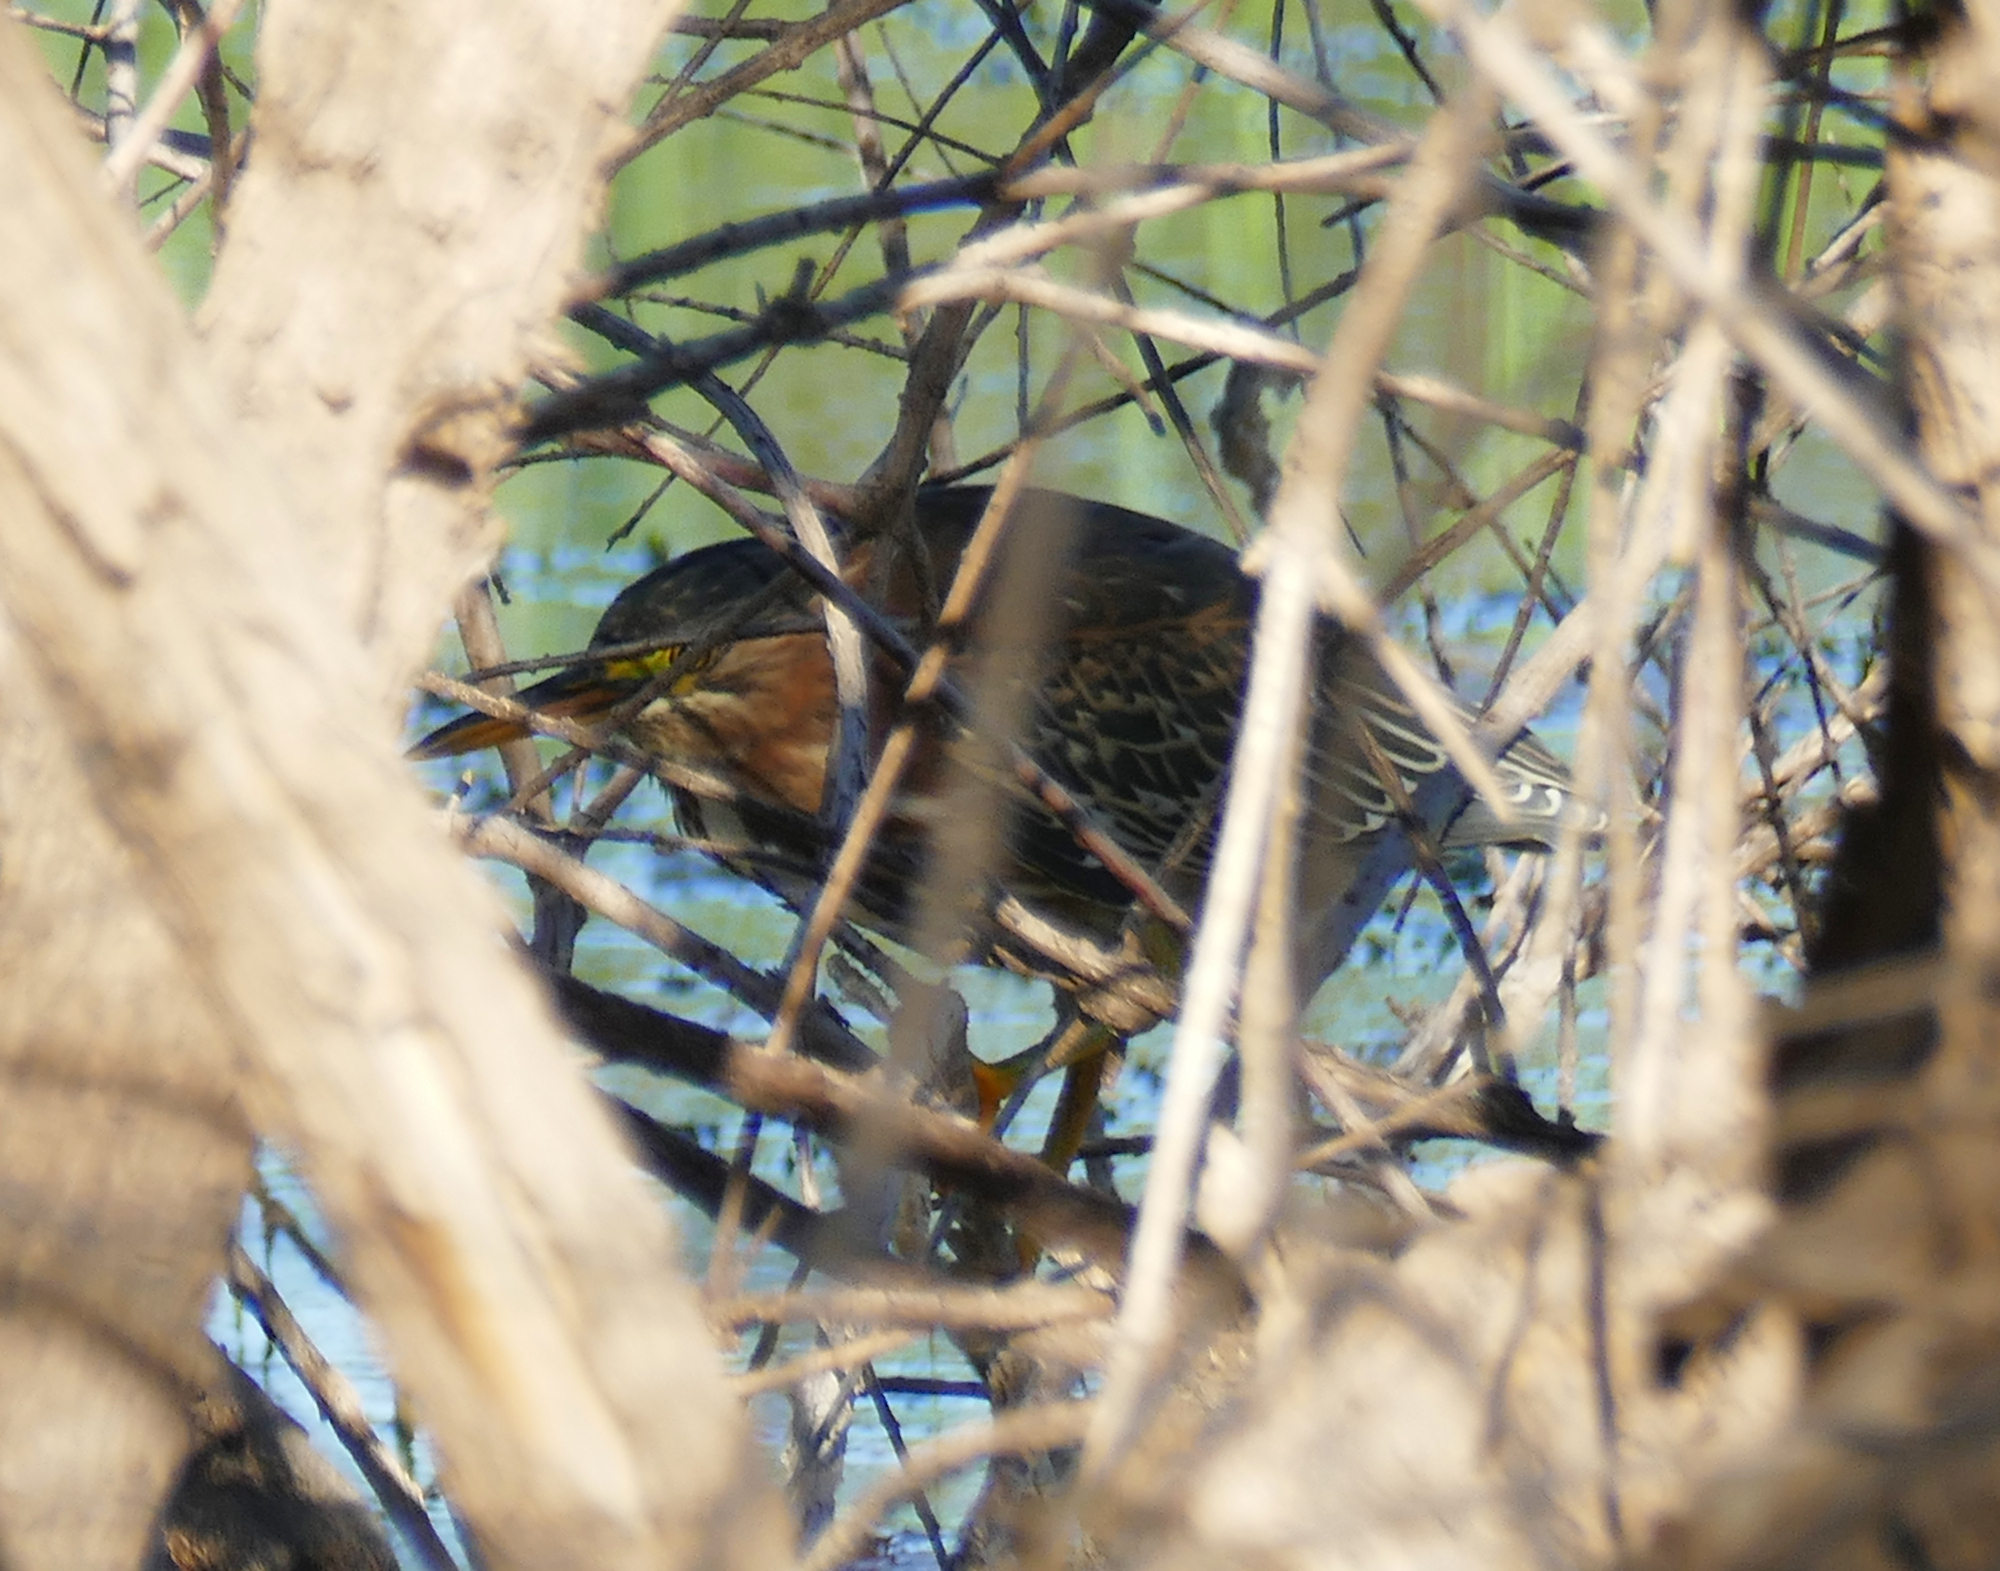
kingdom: Animalia
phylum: Chordata
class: Aves
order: Pelecaniformes
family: Ardeidae
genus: Butorides
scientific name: Butorides virescens
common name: Green heron
